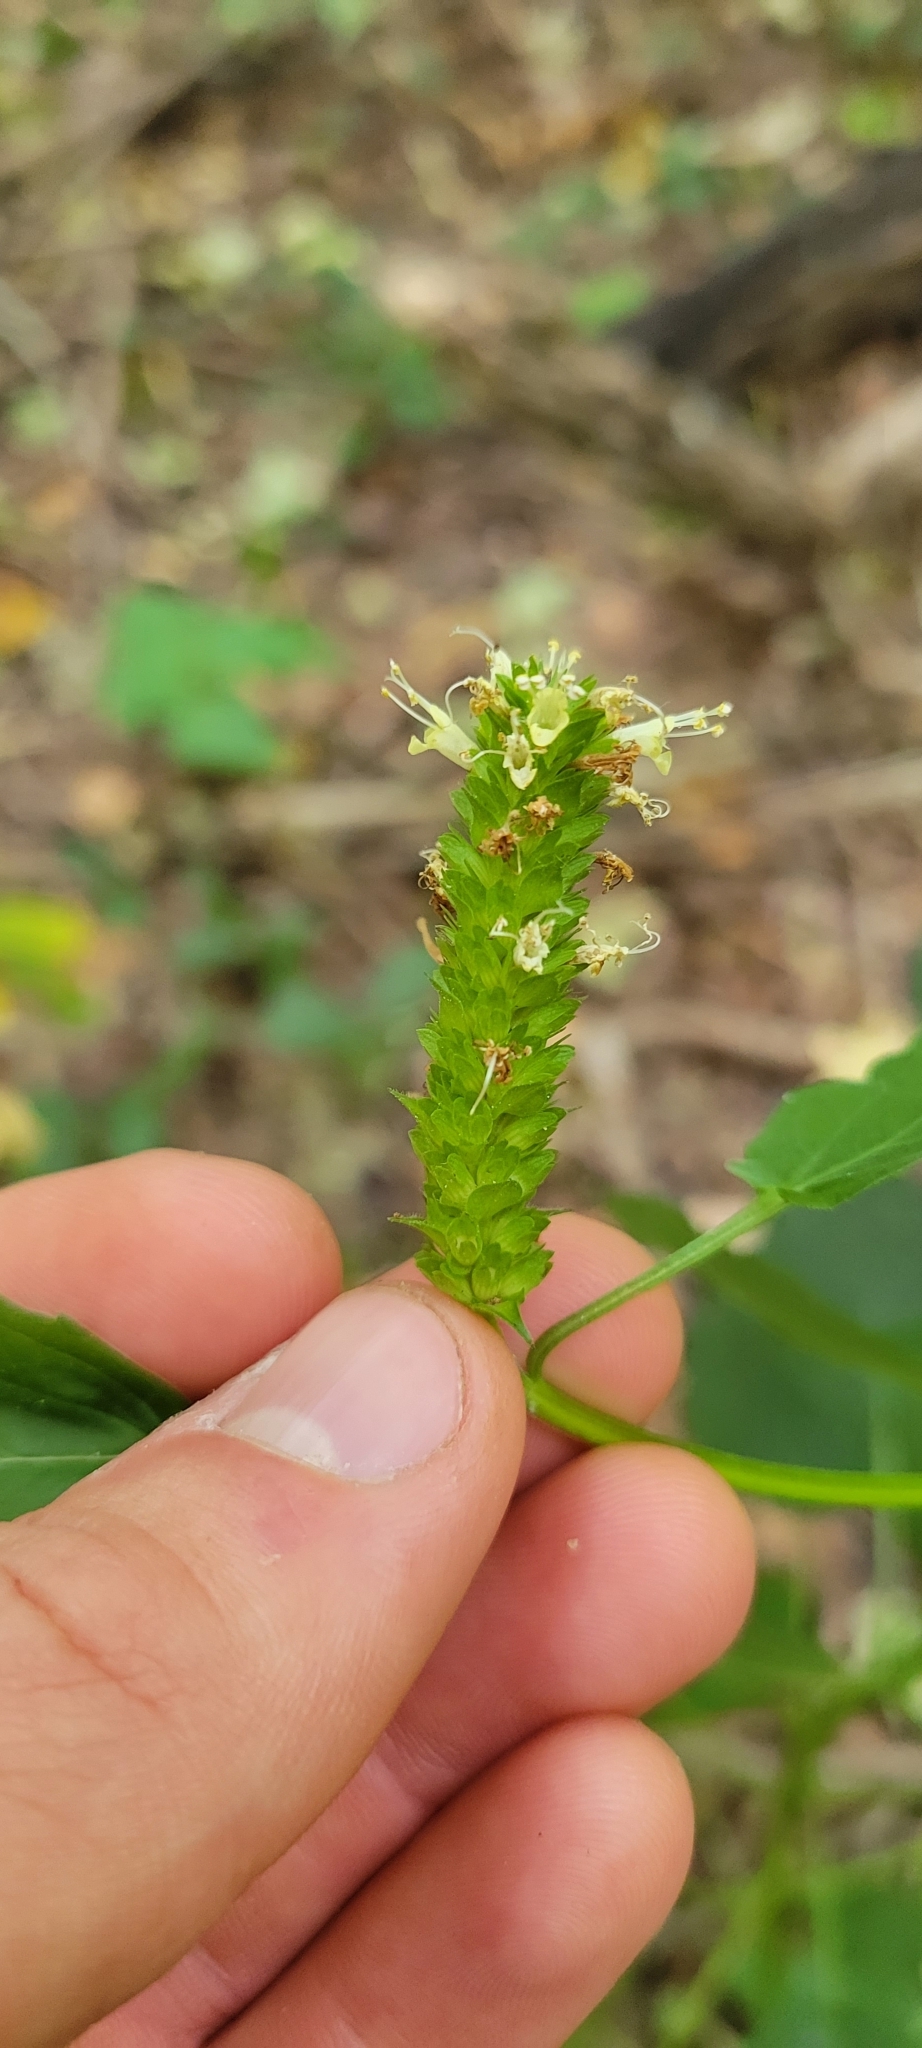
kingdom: Plantae
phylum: Tracheophyta
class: Magnoliopsida
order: Lamiales
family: Lamiaceae
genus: Agastache
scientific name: Agastache nepetoides
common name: Catnip giant hyssop
